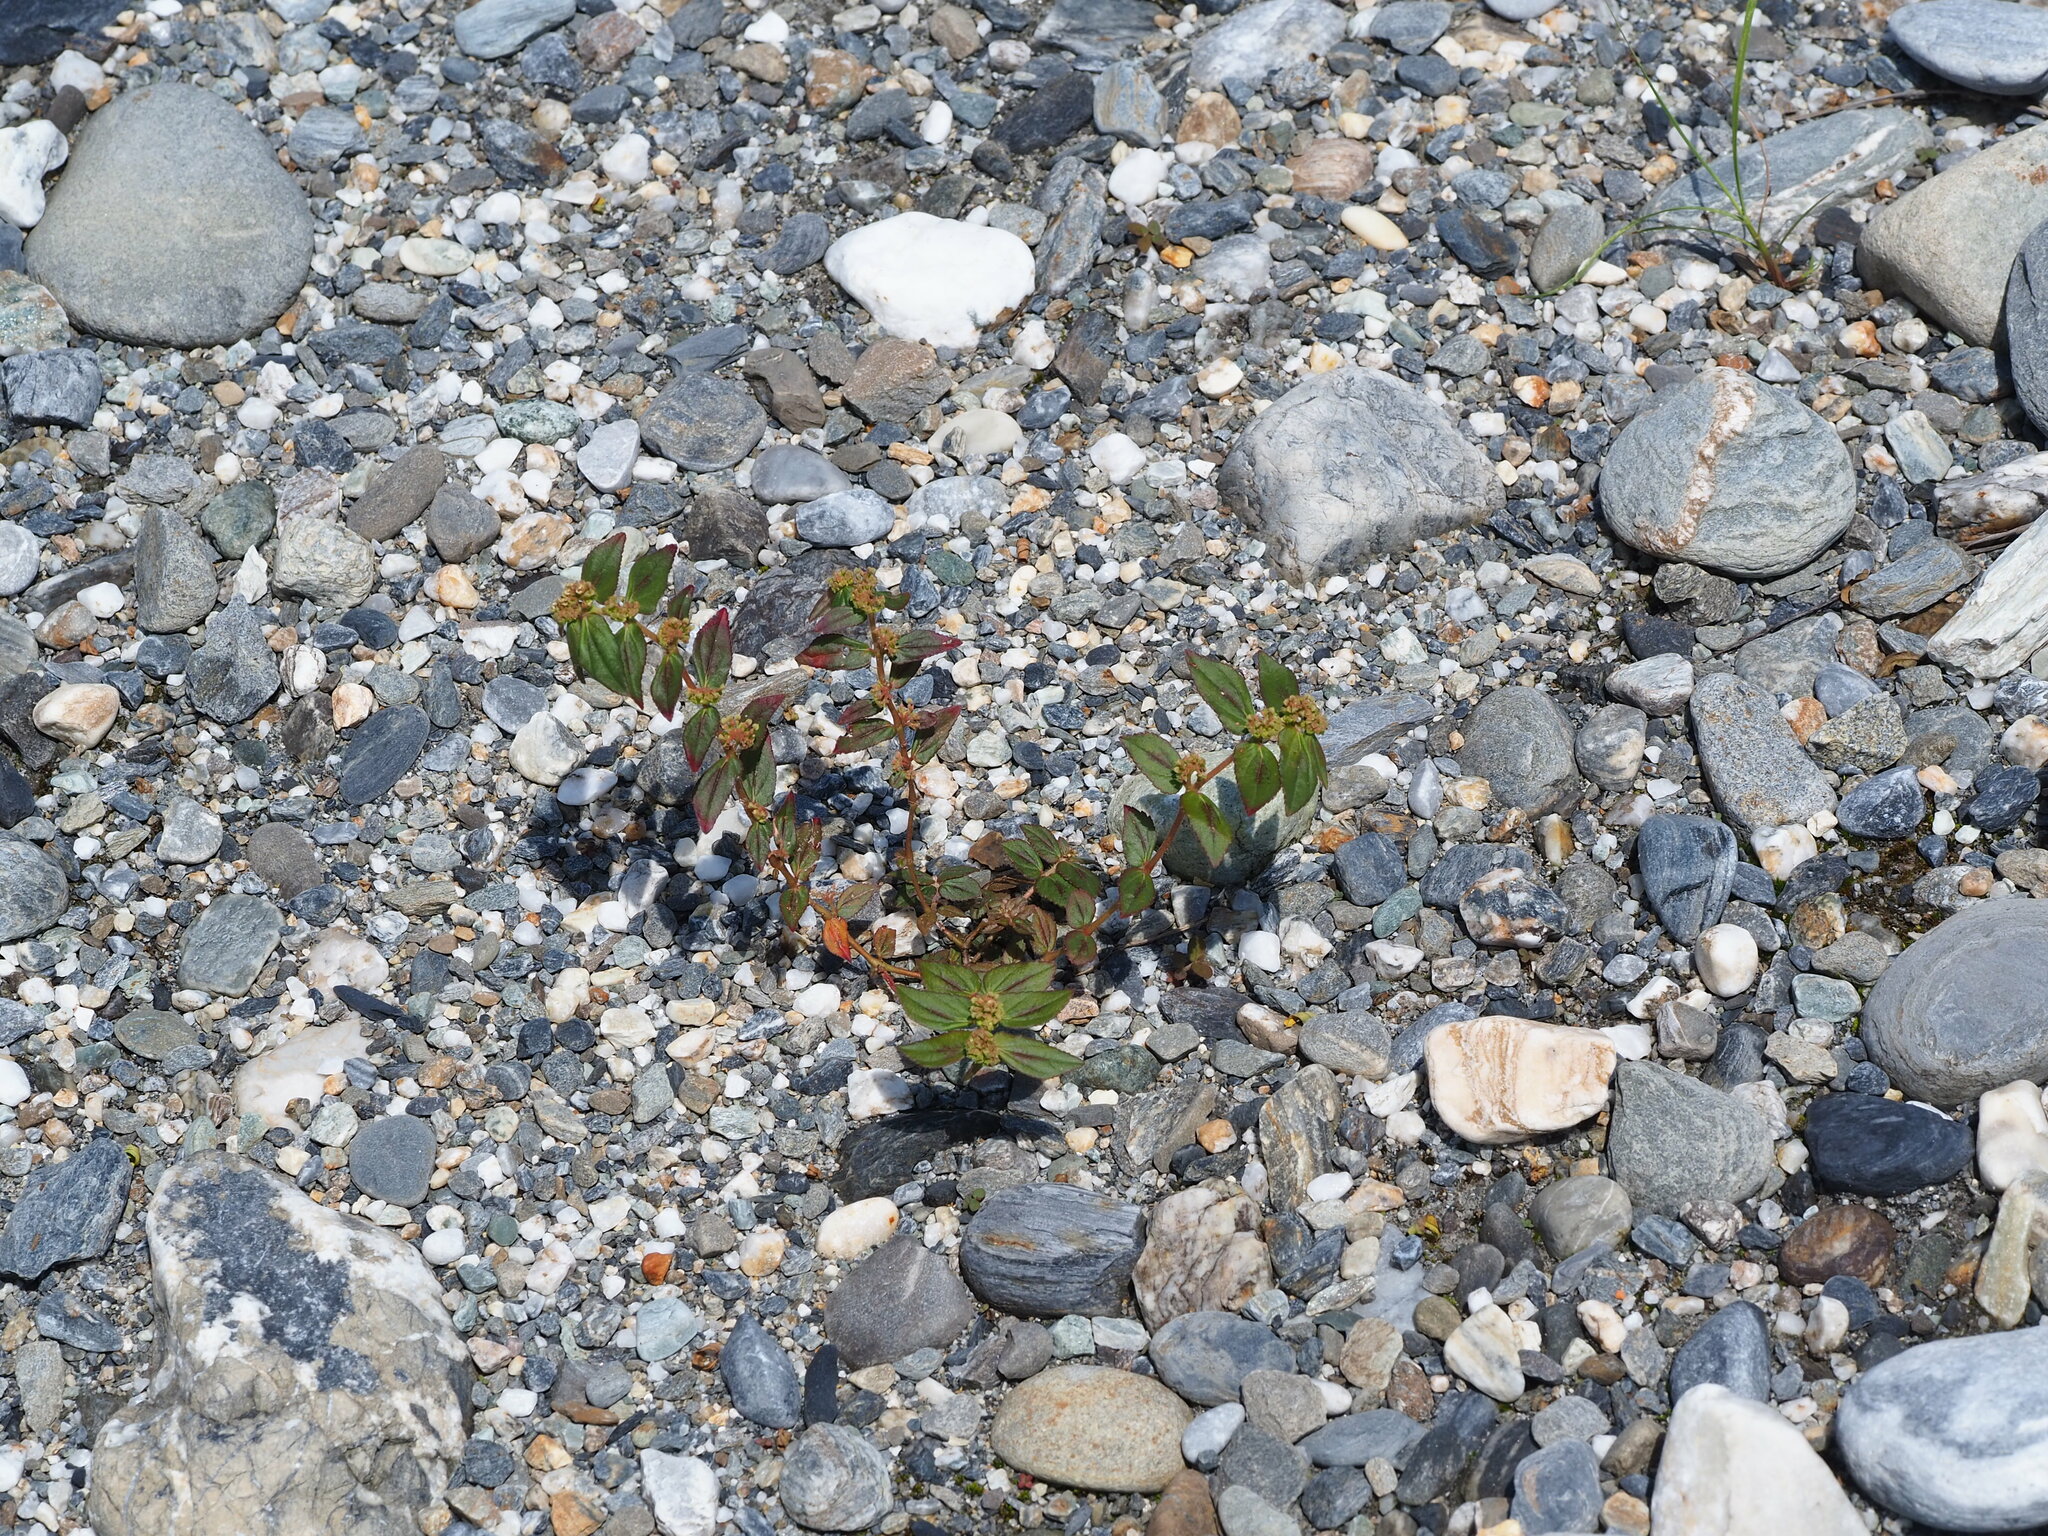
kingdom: Plantae
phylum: Tracheophyta
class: Magnoliopsida
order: Malpighiales
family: Euphorbiaceae
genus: Euphorbia
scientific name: Euphorbia hirta
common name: Pillpod sandmat
